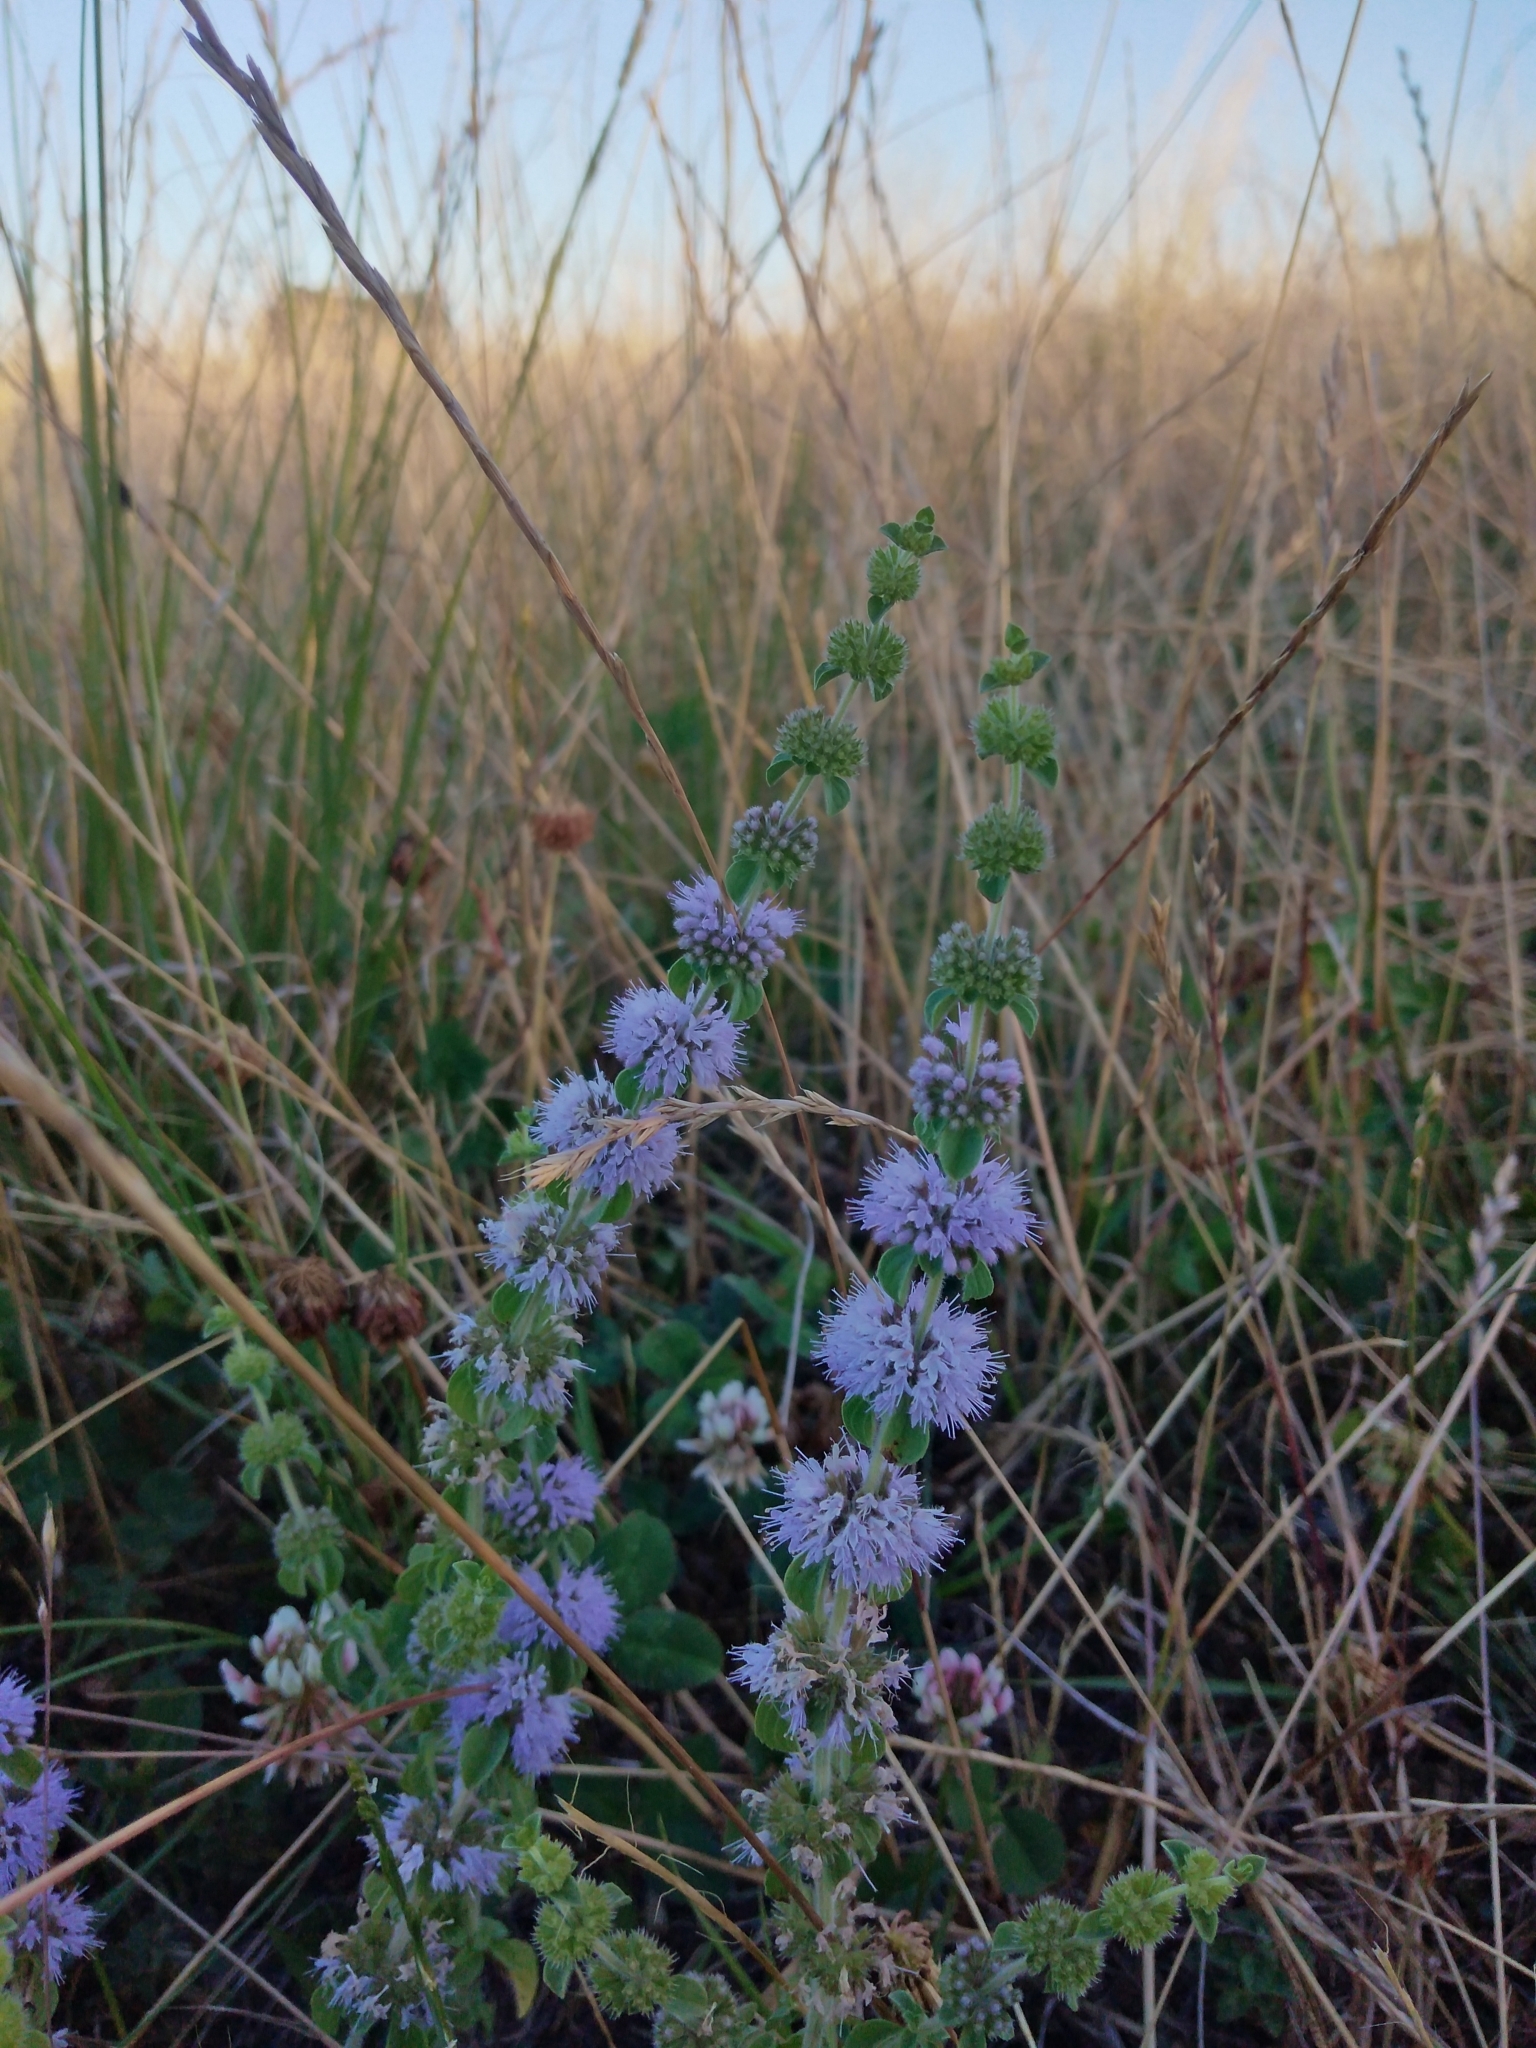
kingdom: Plantae
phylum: Tracheophyta
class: Magnoliopsida
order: Lamiales
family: Lamiaceae
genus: Mentha
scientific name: Mentha pulegium
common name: Pennyroyal
